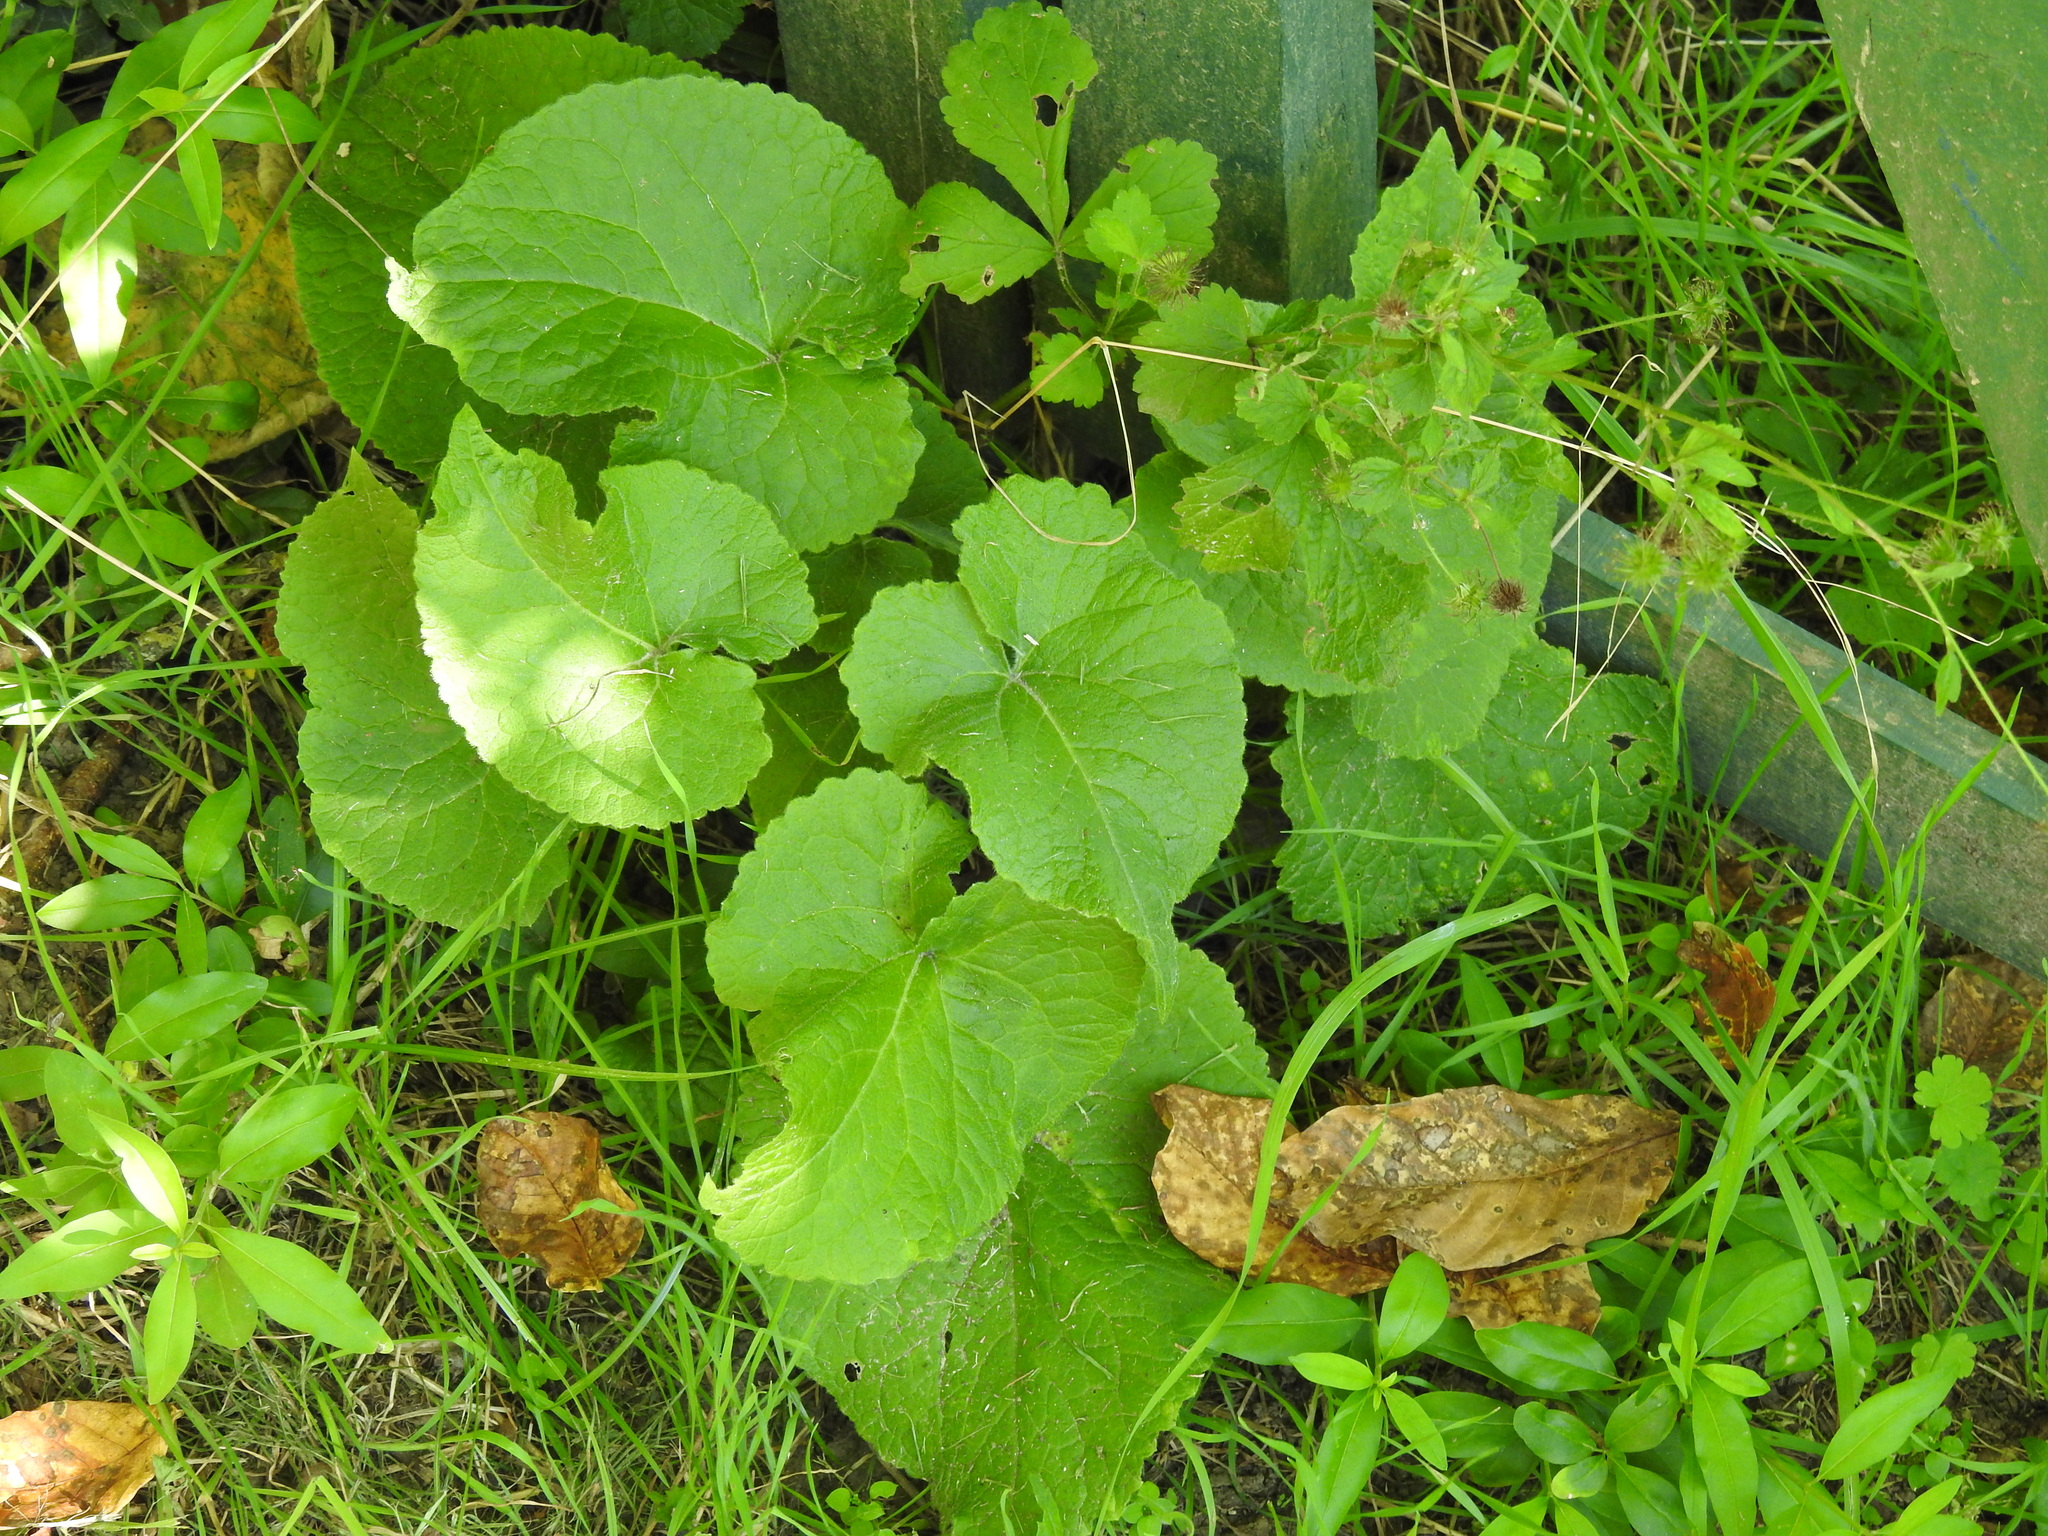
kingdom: Plantae
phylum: Tracheophyta
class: Magnoliopsida
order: Brassicales
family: Brassicaceae
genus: Alliaria
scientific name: Alliaria petiolata
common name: Garlic mustard
